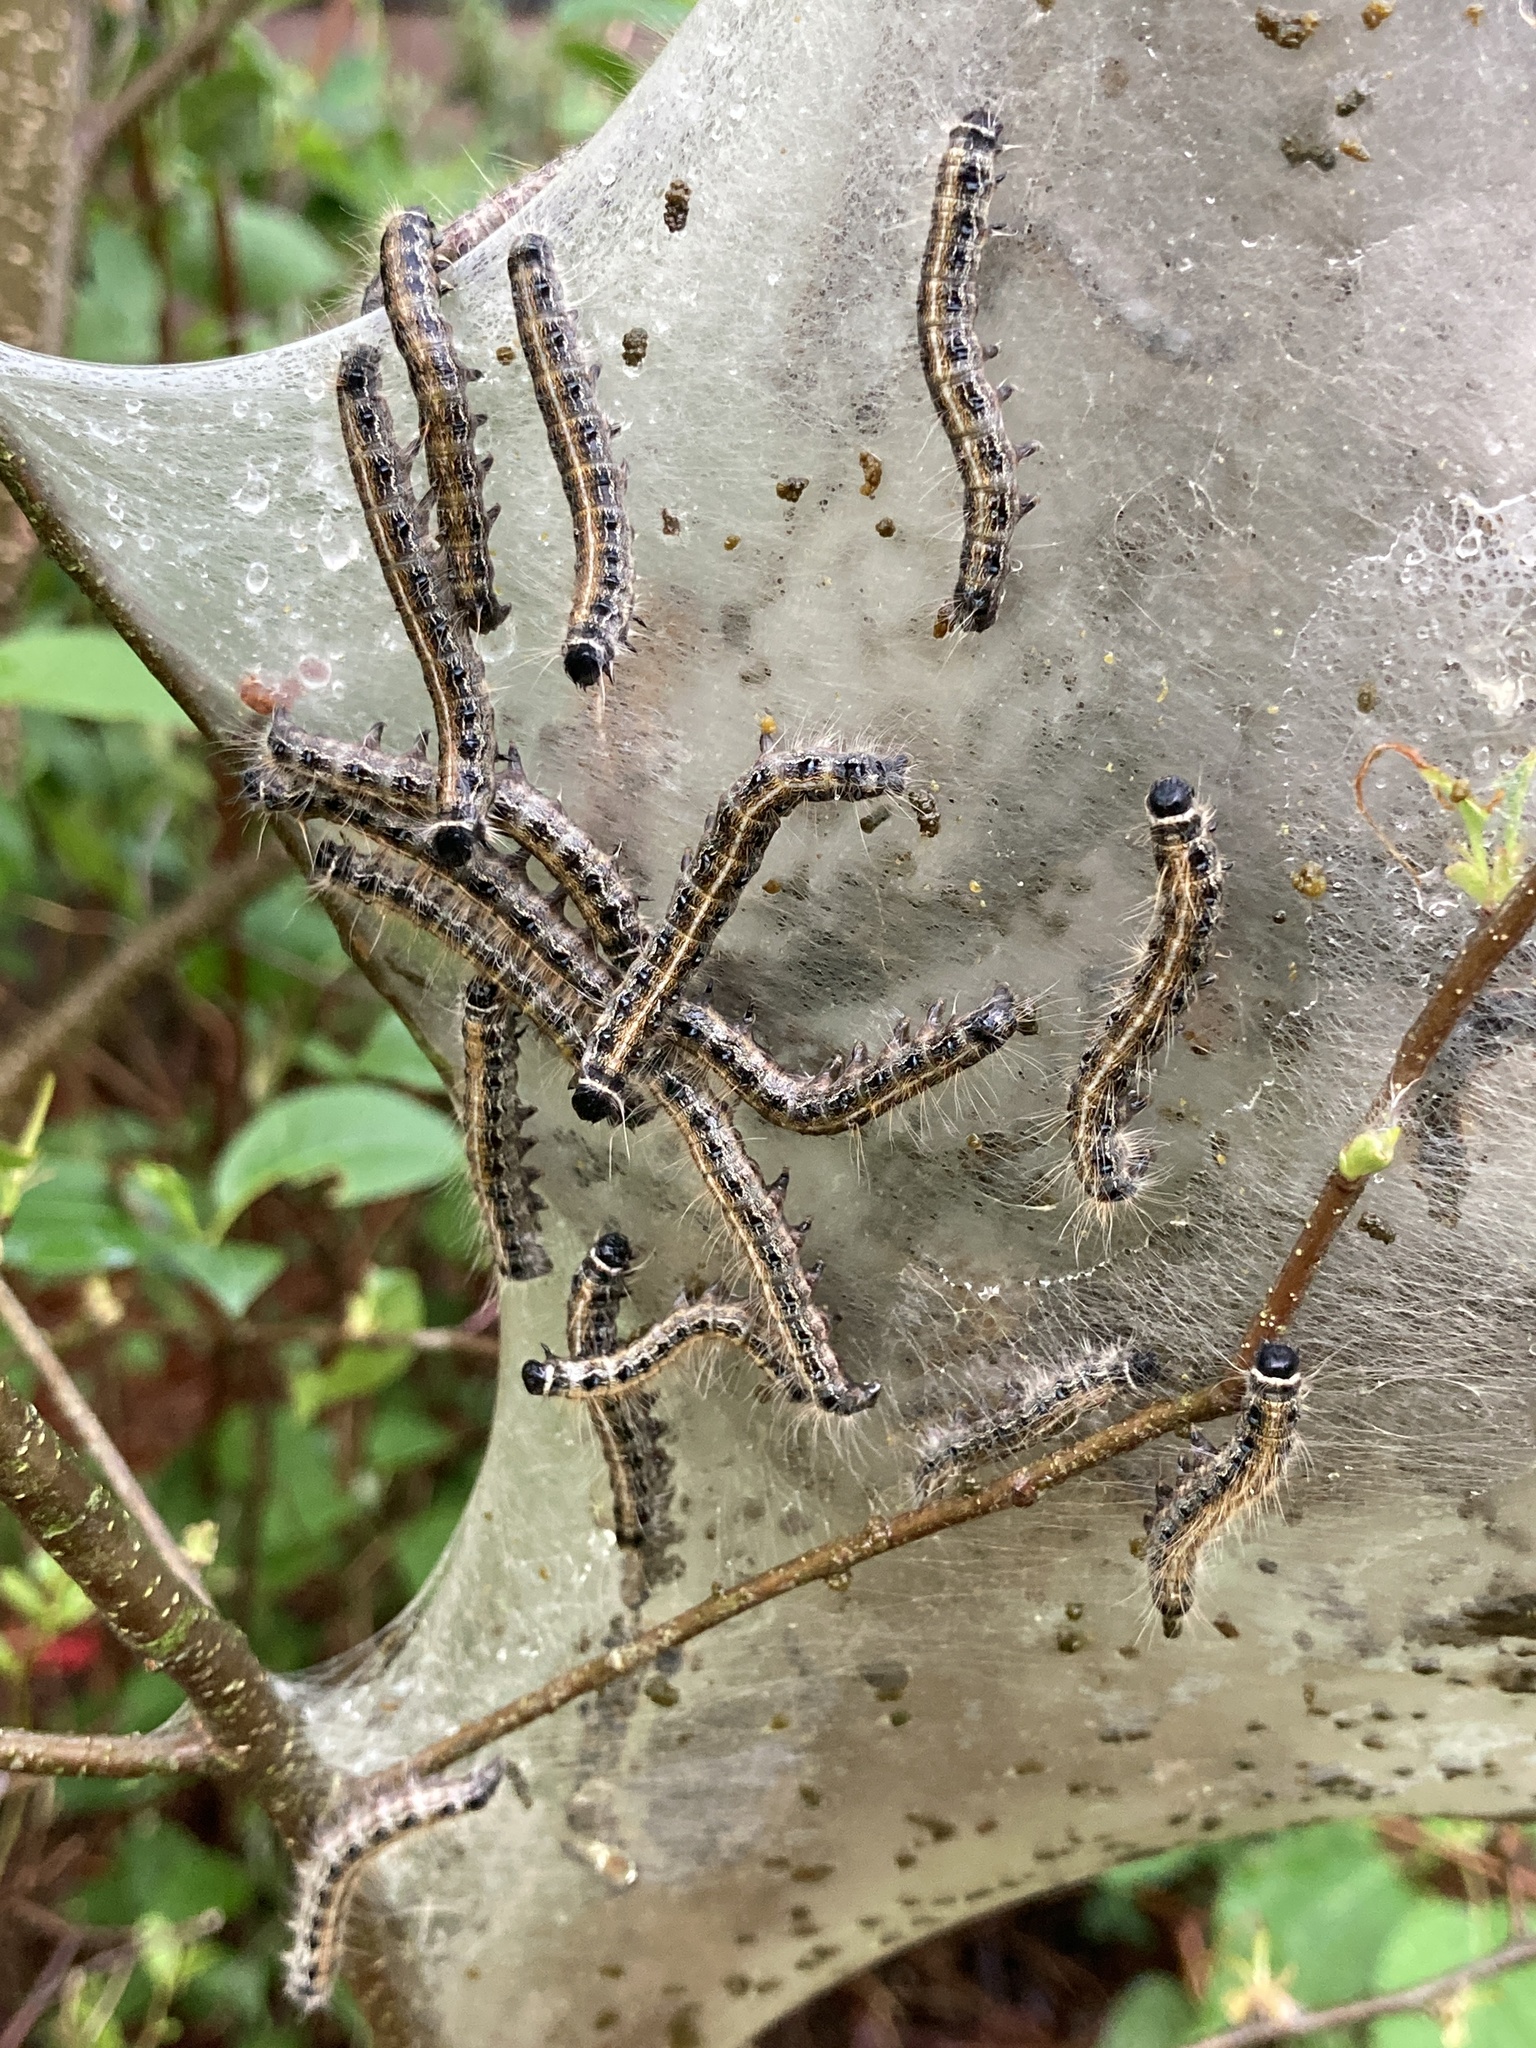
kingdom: Animalia
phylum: Arthropoda
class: Insecta
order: Lepidoptera
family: Lasiocampidae
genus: Malacosoma
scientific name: Malacosoma americana
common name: Eastern tent caterpillar moth
